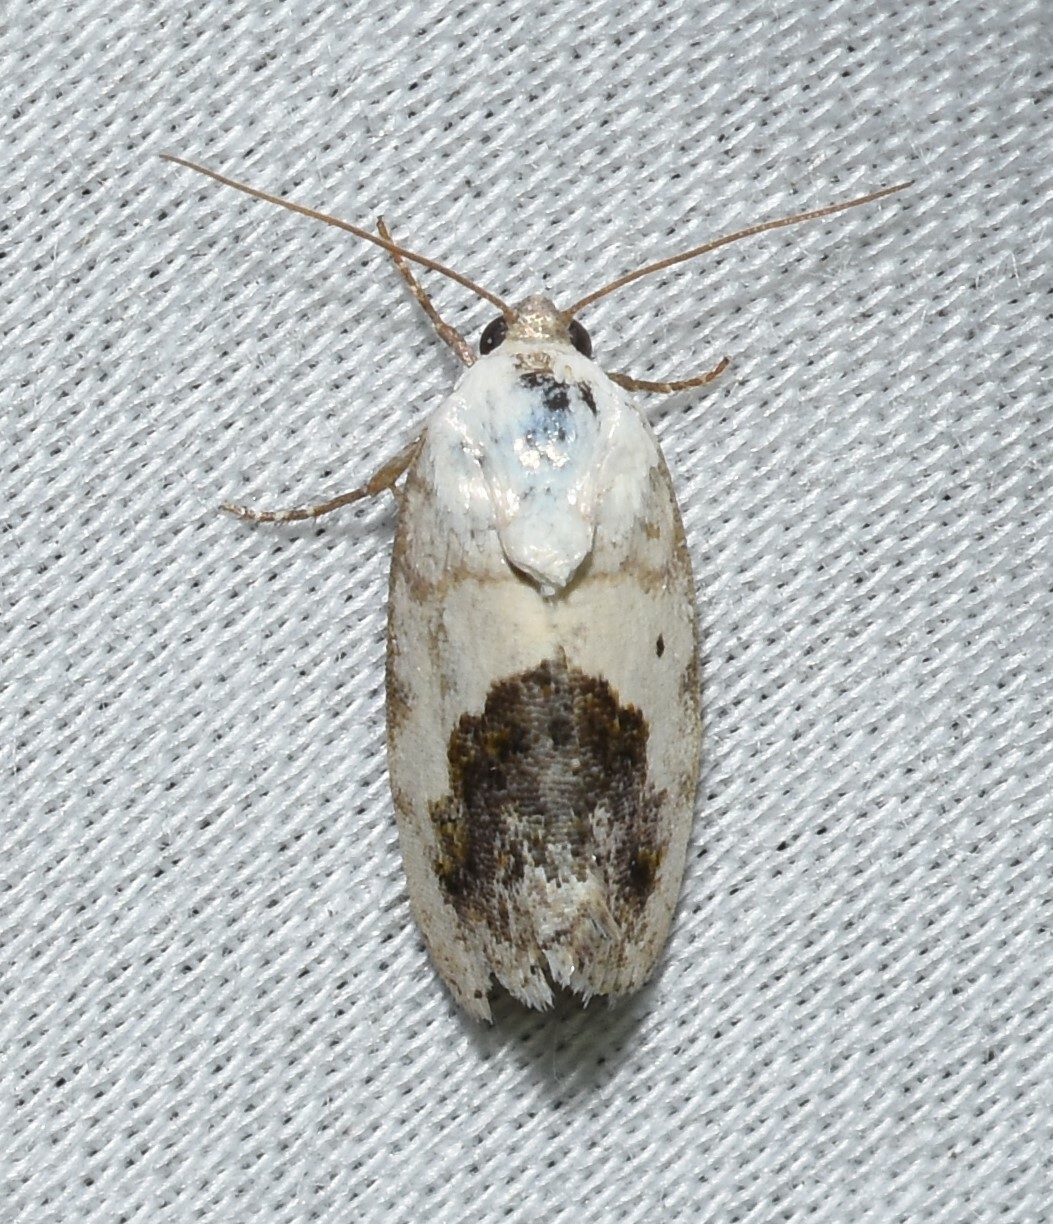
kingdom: Animalia
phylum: Arthropoda
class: Insecta
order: Lepidoptera
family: Noctuidae
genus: Acontia
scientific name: Acontia erastrioides
